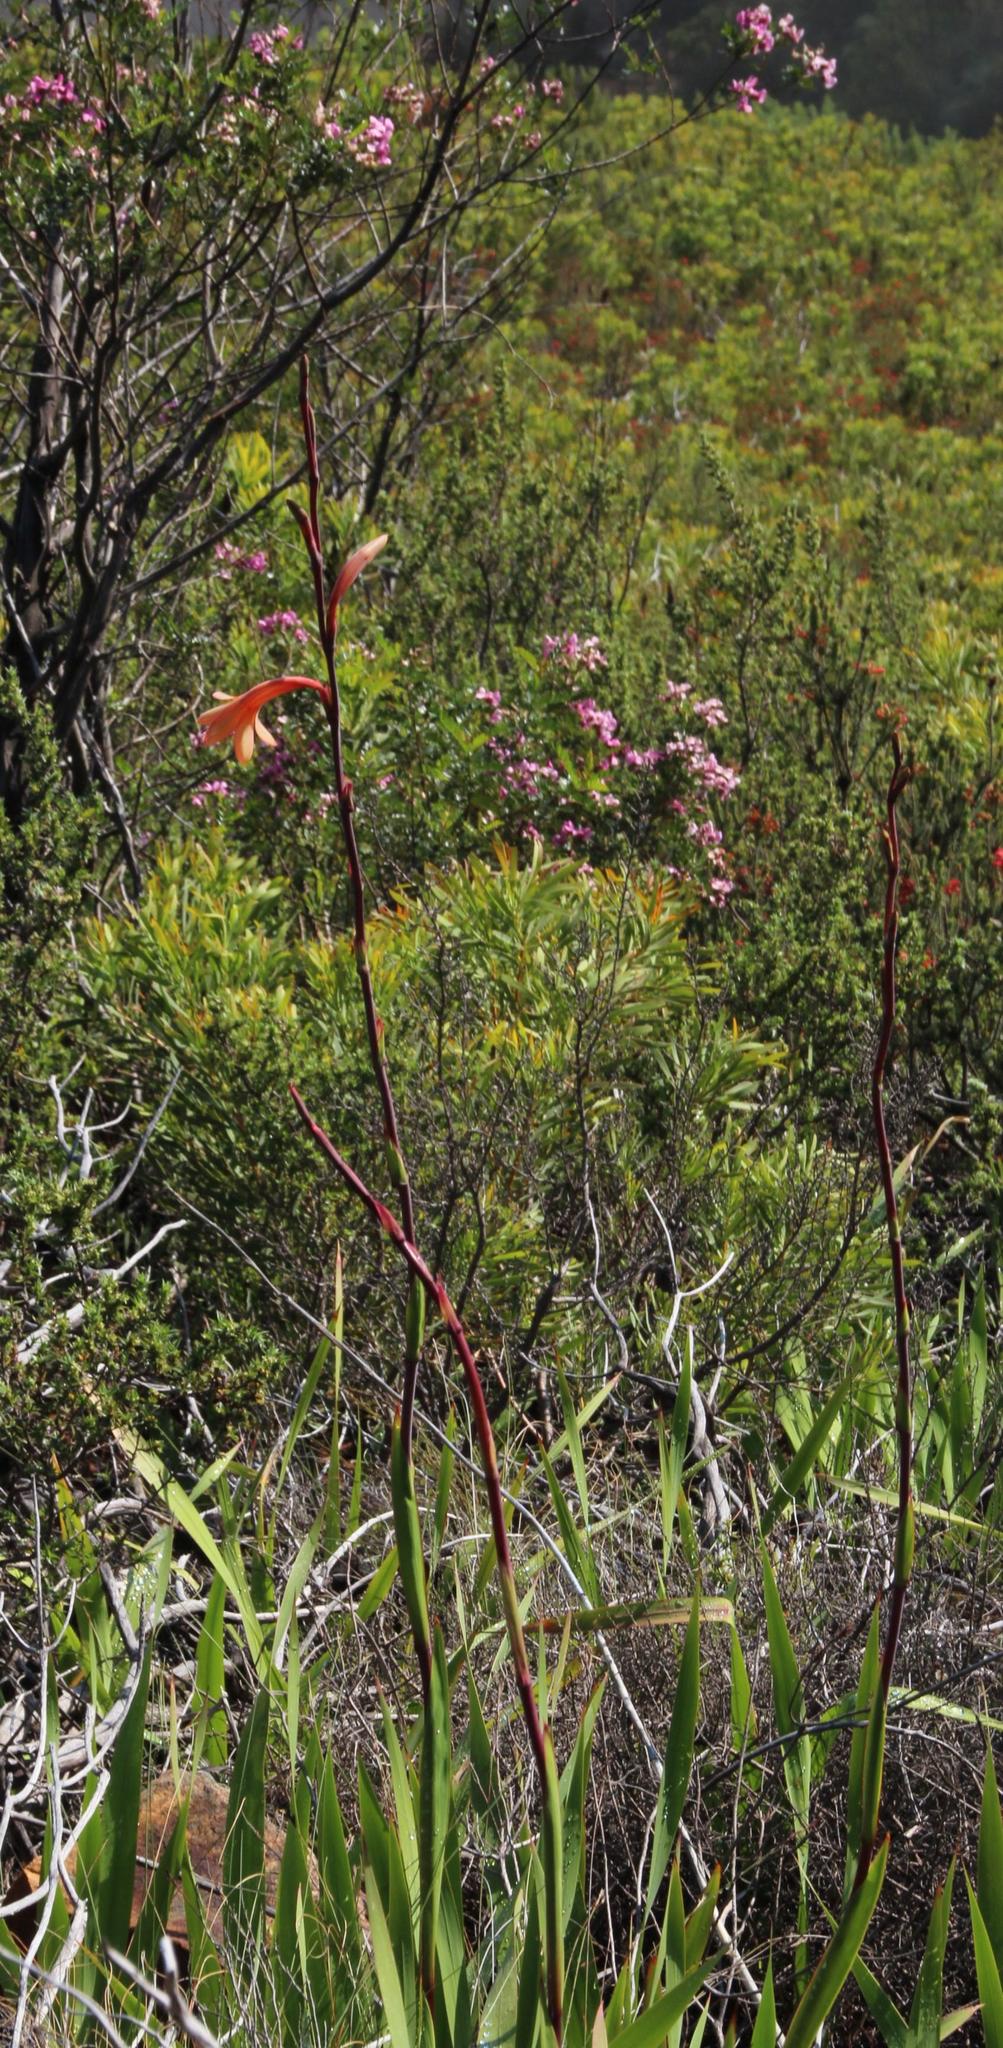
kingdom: Plantae
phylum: Tracheophyta
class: Liliopsida
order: Asparagales
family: Iridaceae
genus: Watsonia
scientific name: Watsonia tabularis
